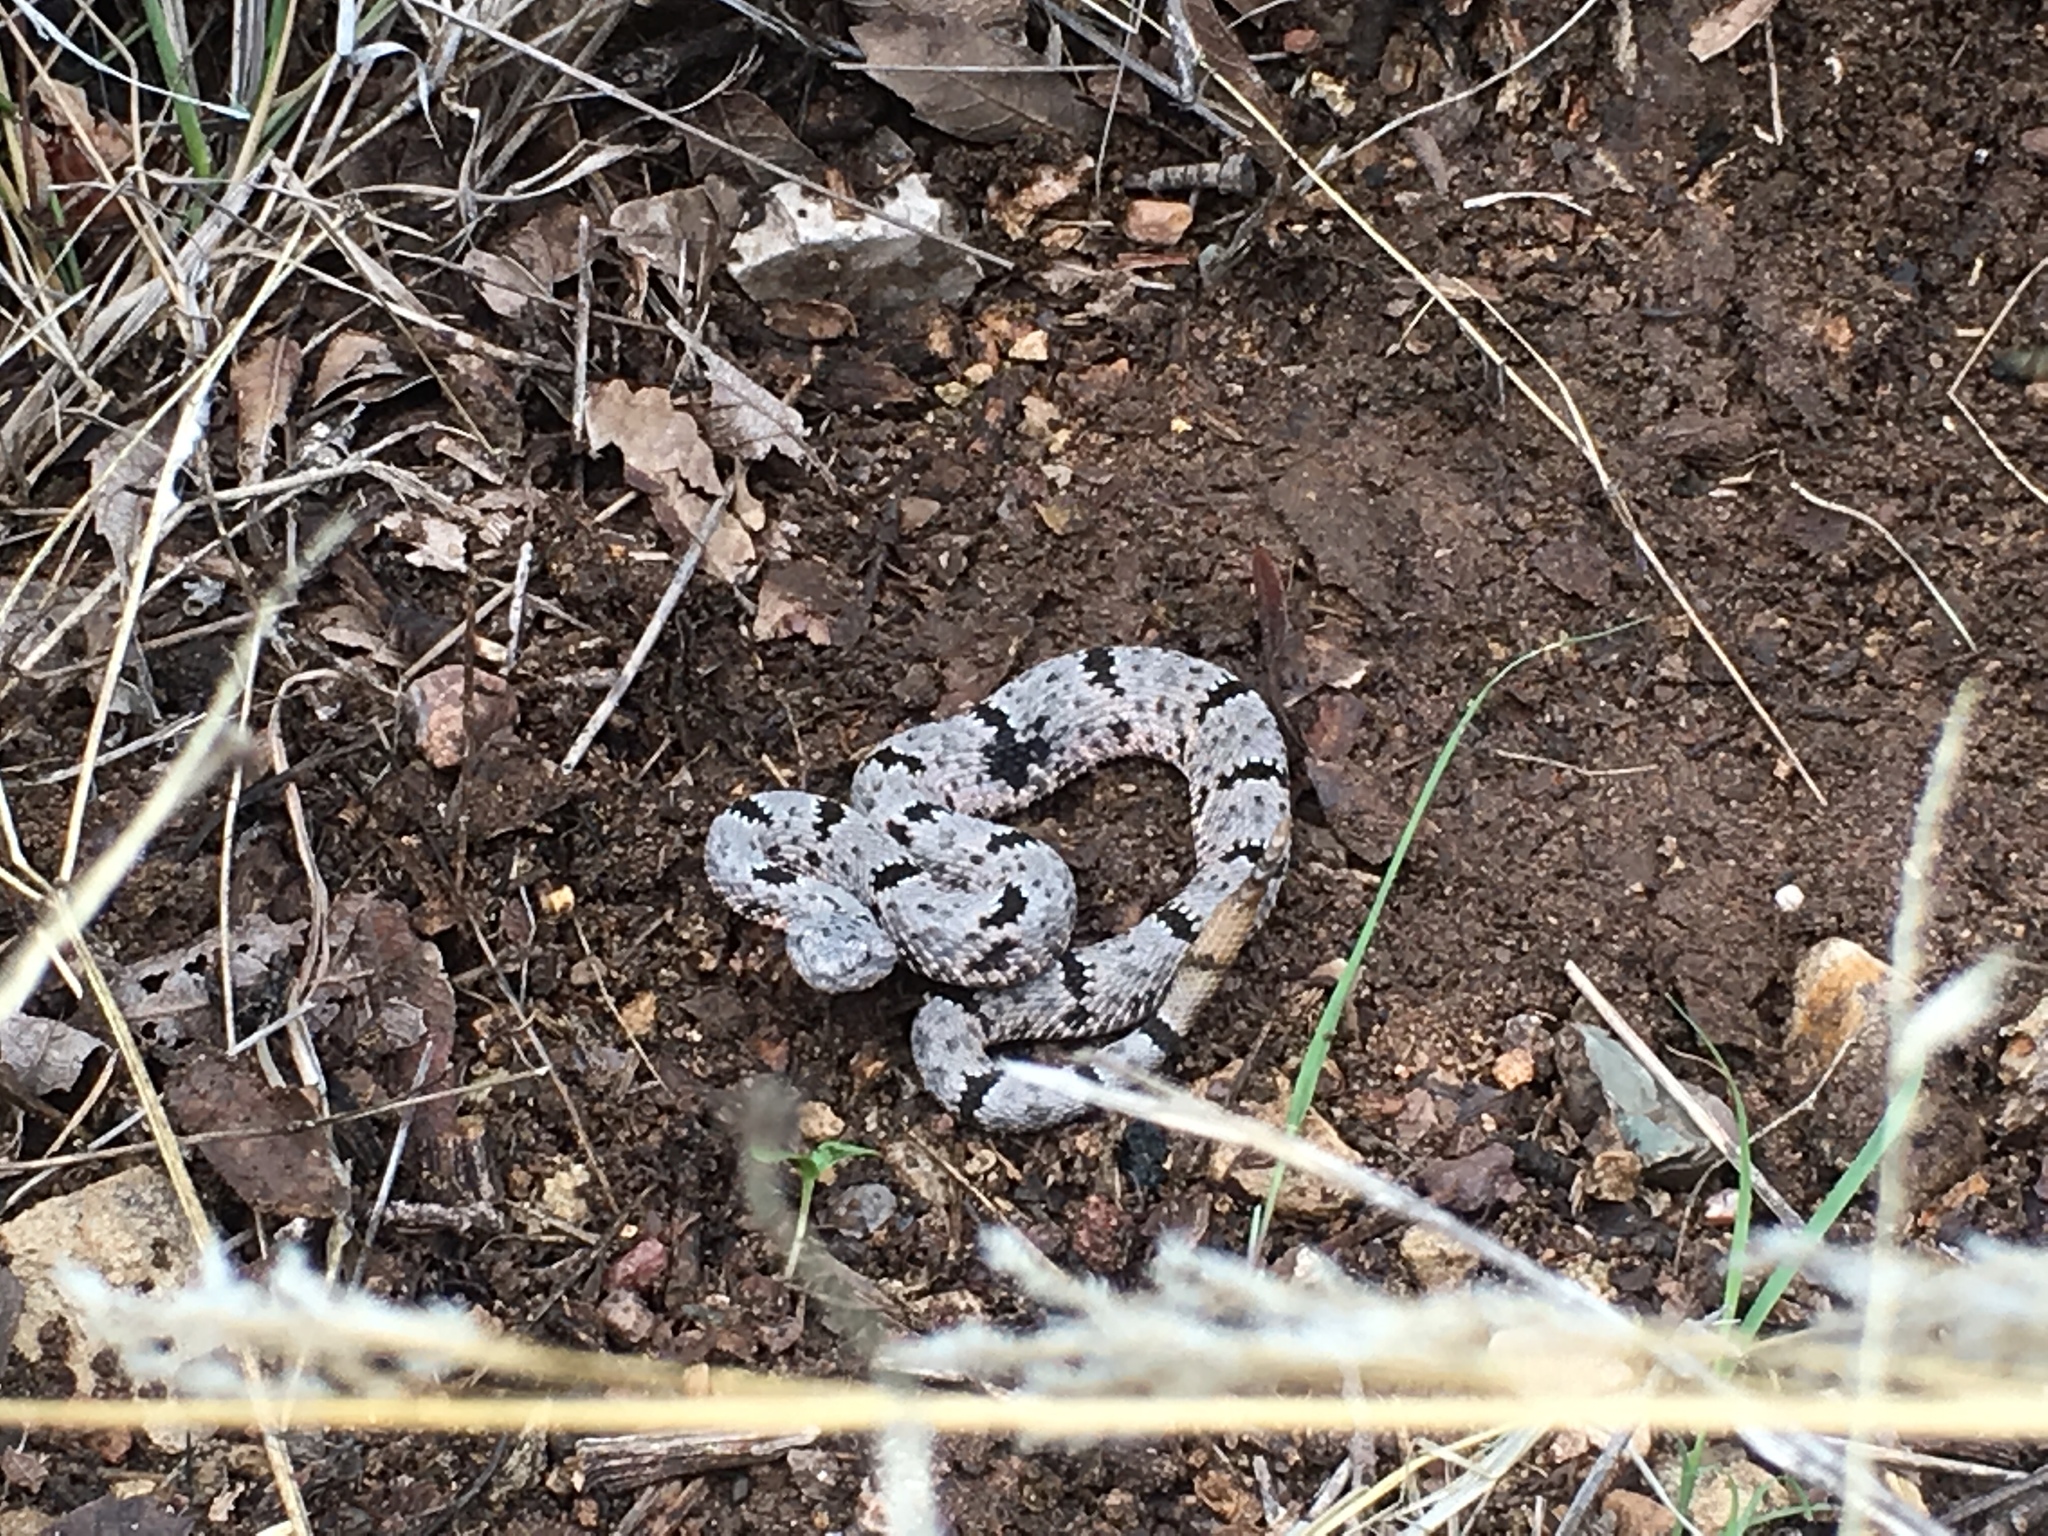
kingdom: Animalia
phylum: Chordata
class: Squamata
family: Viperidae
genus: Crotalus
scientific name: Crotalus lepidus
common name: Rock rattlesnake
